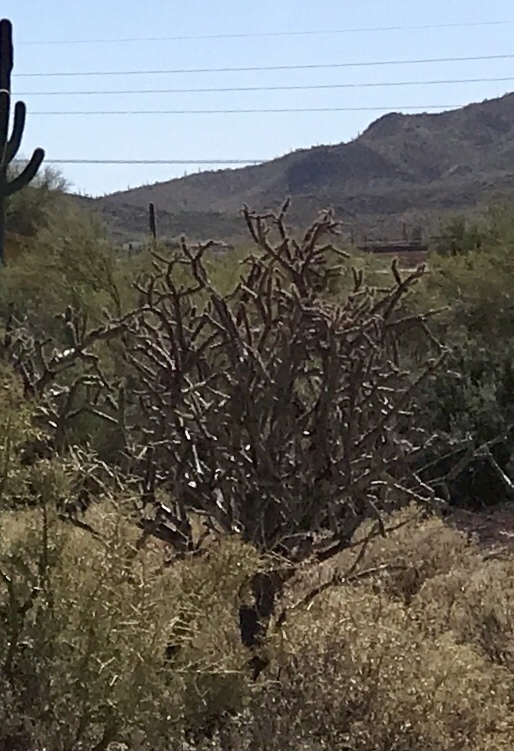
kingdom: Plantae
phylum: Tracheophyta
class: Magnoliopsida
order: Caryophyllales
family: Cactaceae
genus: Cylindropuntia
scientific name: Cylindropuntia thurberi
